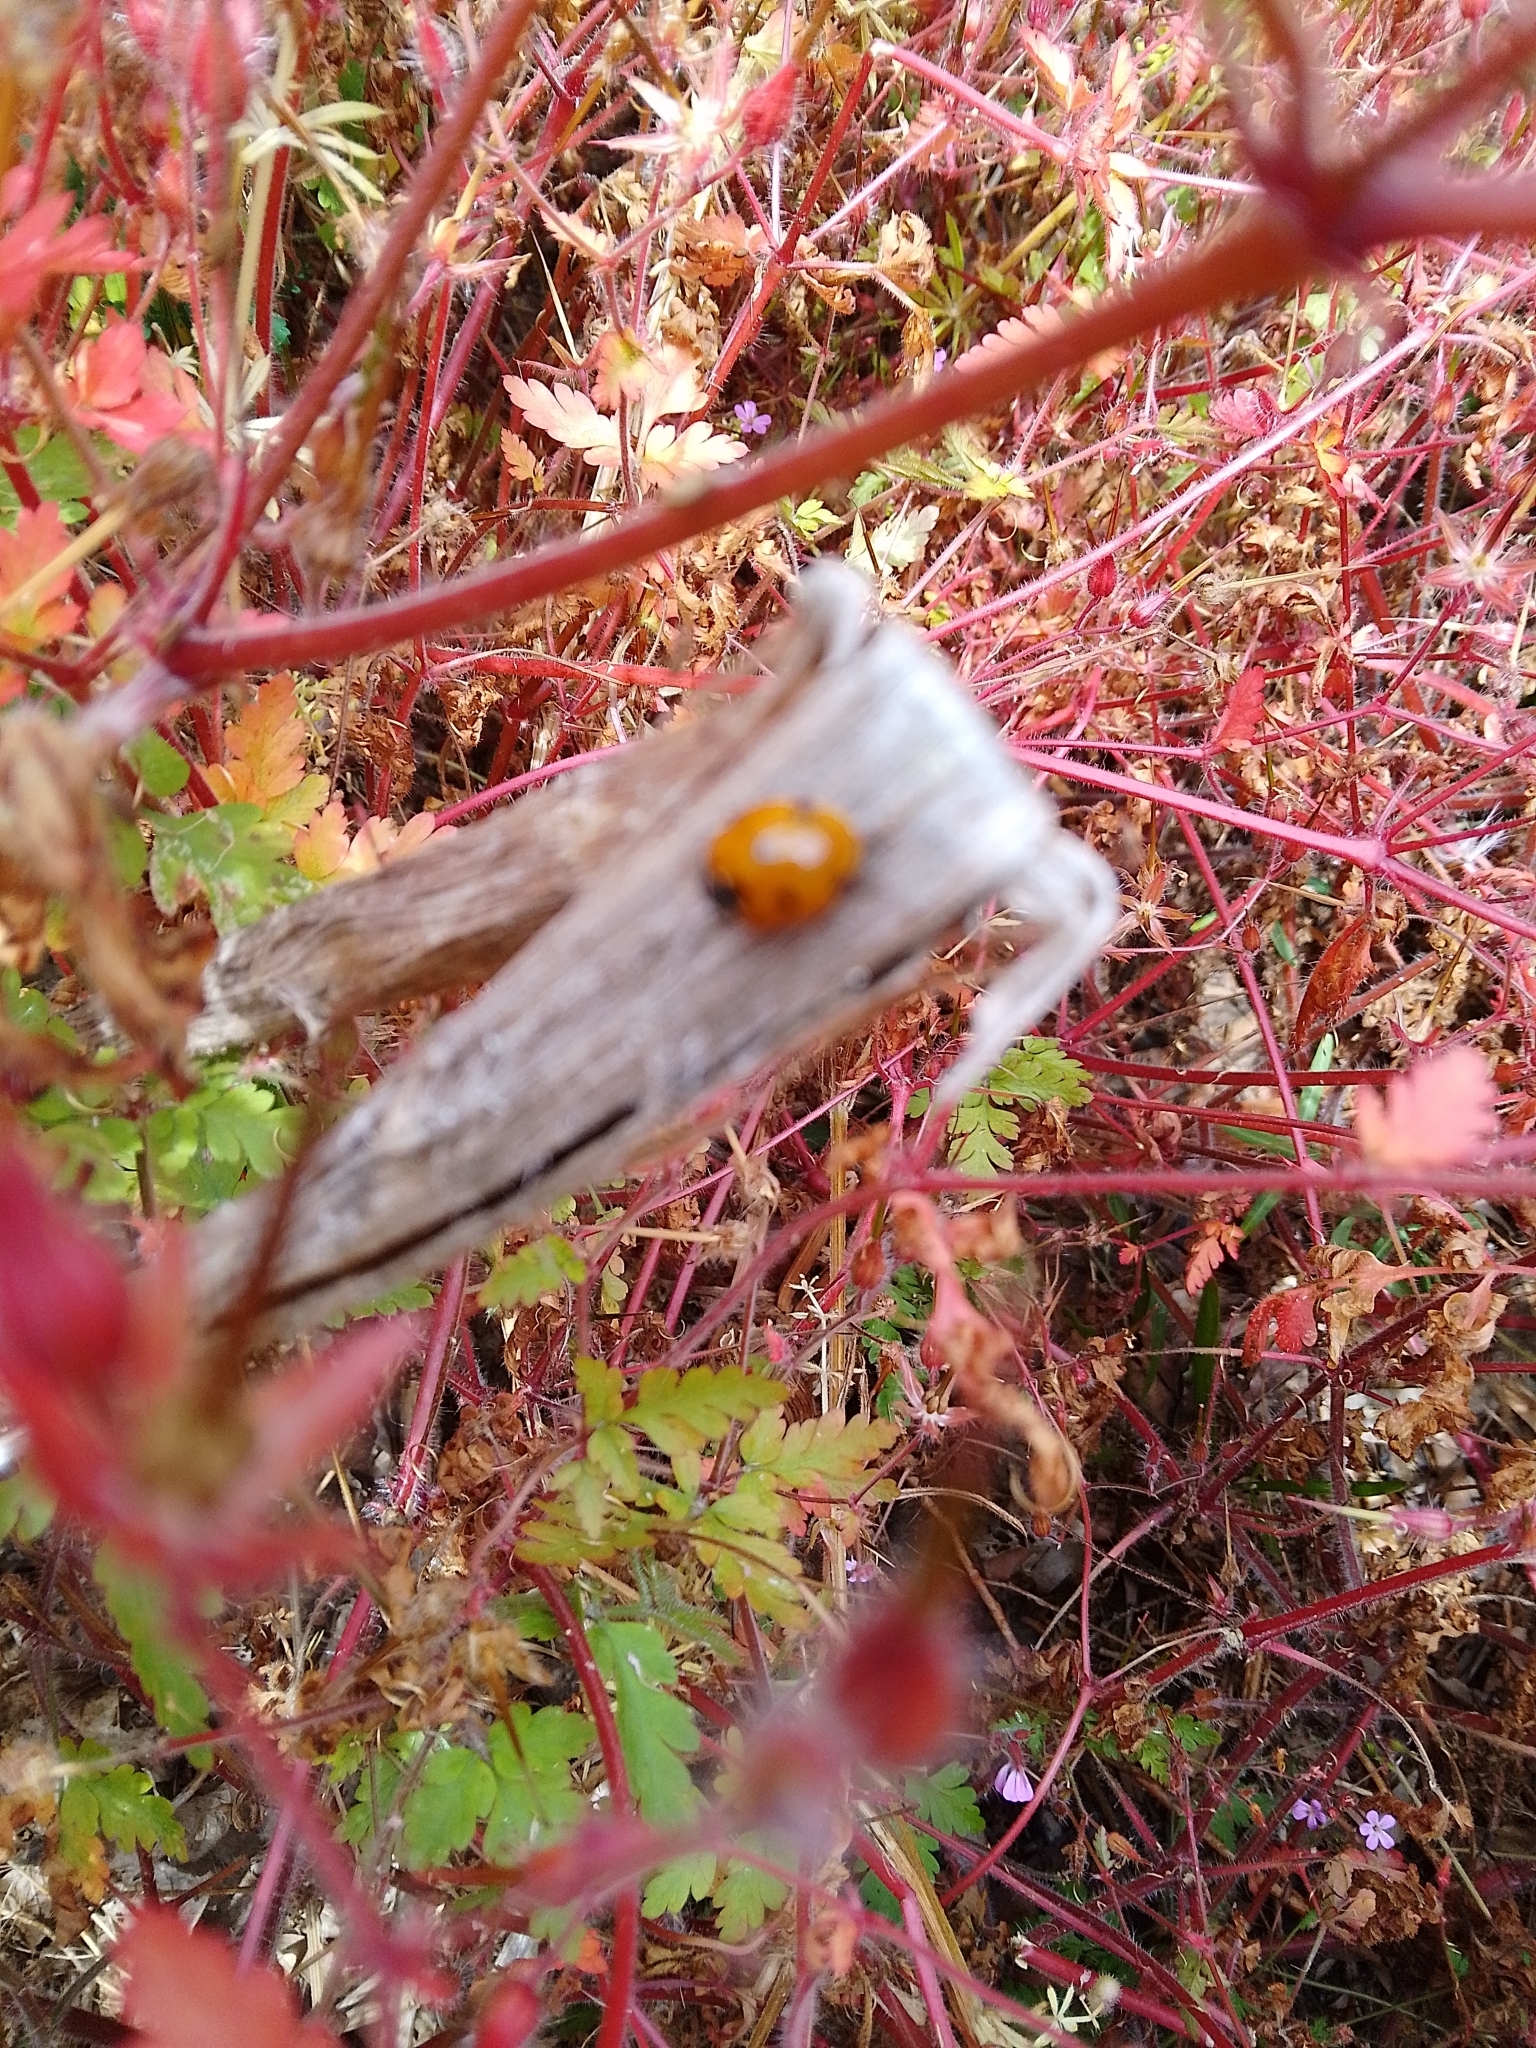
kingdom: Animalia
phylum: Arthropoda
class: Insecta
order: Coleoptera
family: Coccinellidae
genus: Coccinella
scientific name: Coccinella septempunctata
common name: Sevenspotted lady beetle
